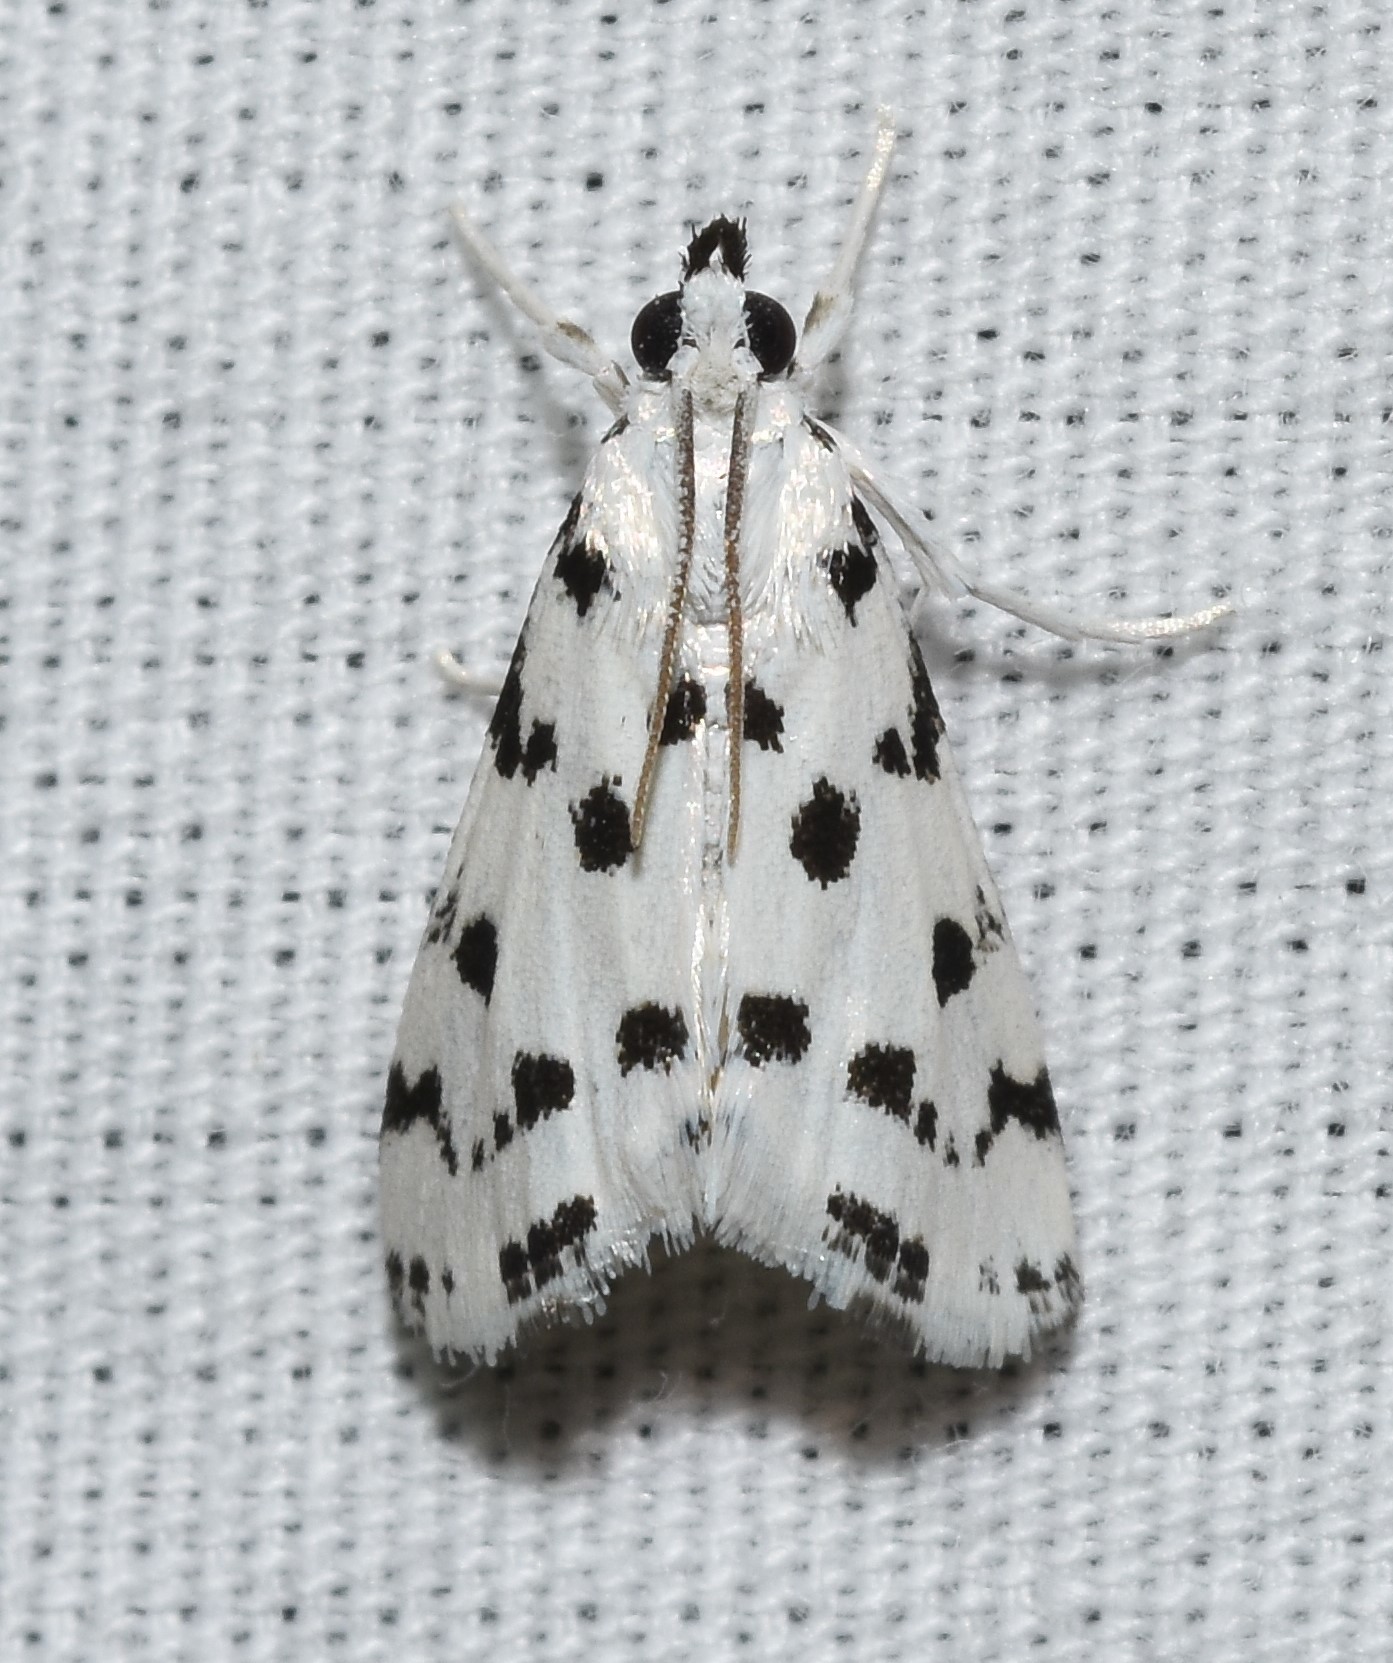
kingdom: Animalia
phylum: Arthropoda
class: Insecta
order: Lepidoptera
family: Crambidae
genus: Eustixia
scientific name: Eustixia pupula
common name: American cabbage pearl
